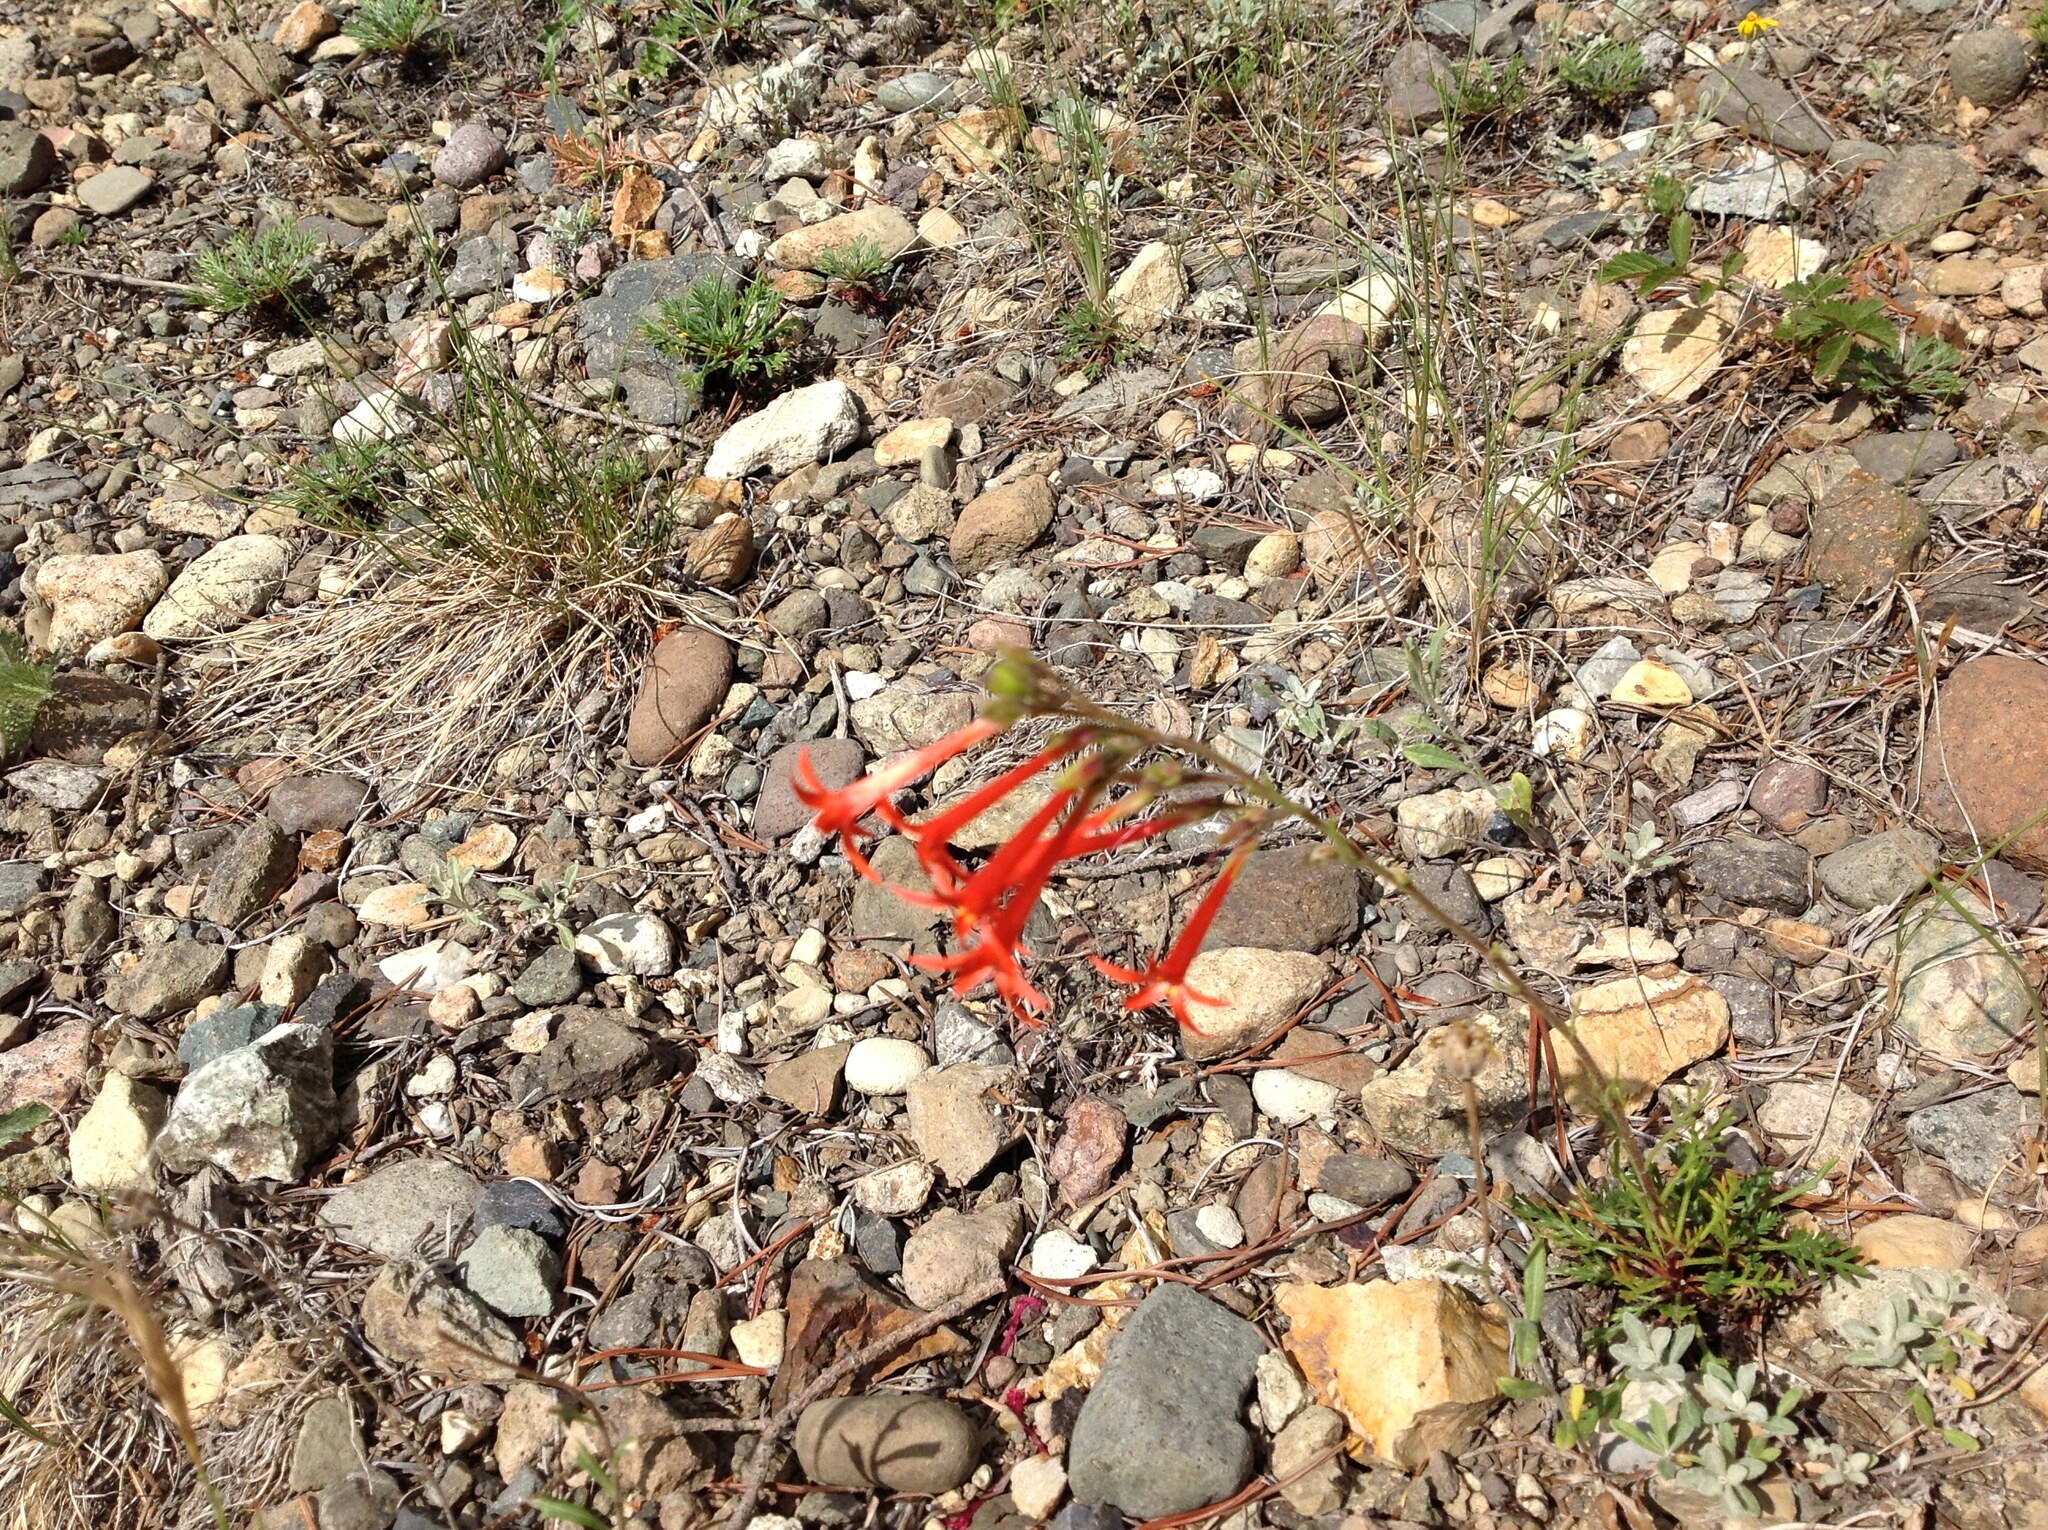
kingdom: Plantae
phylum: Tracheophyta
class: Magnoliopsida
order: Ericales
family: Polemoniaceae
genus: Ipomopsis
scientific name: Ipomopsis aggregata
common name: Scarlet gilia
